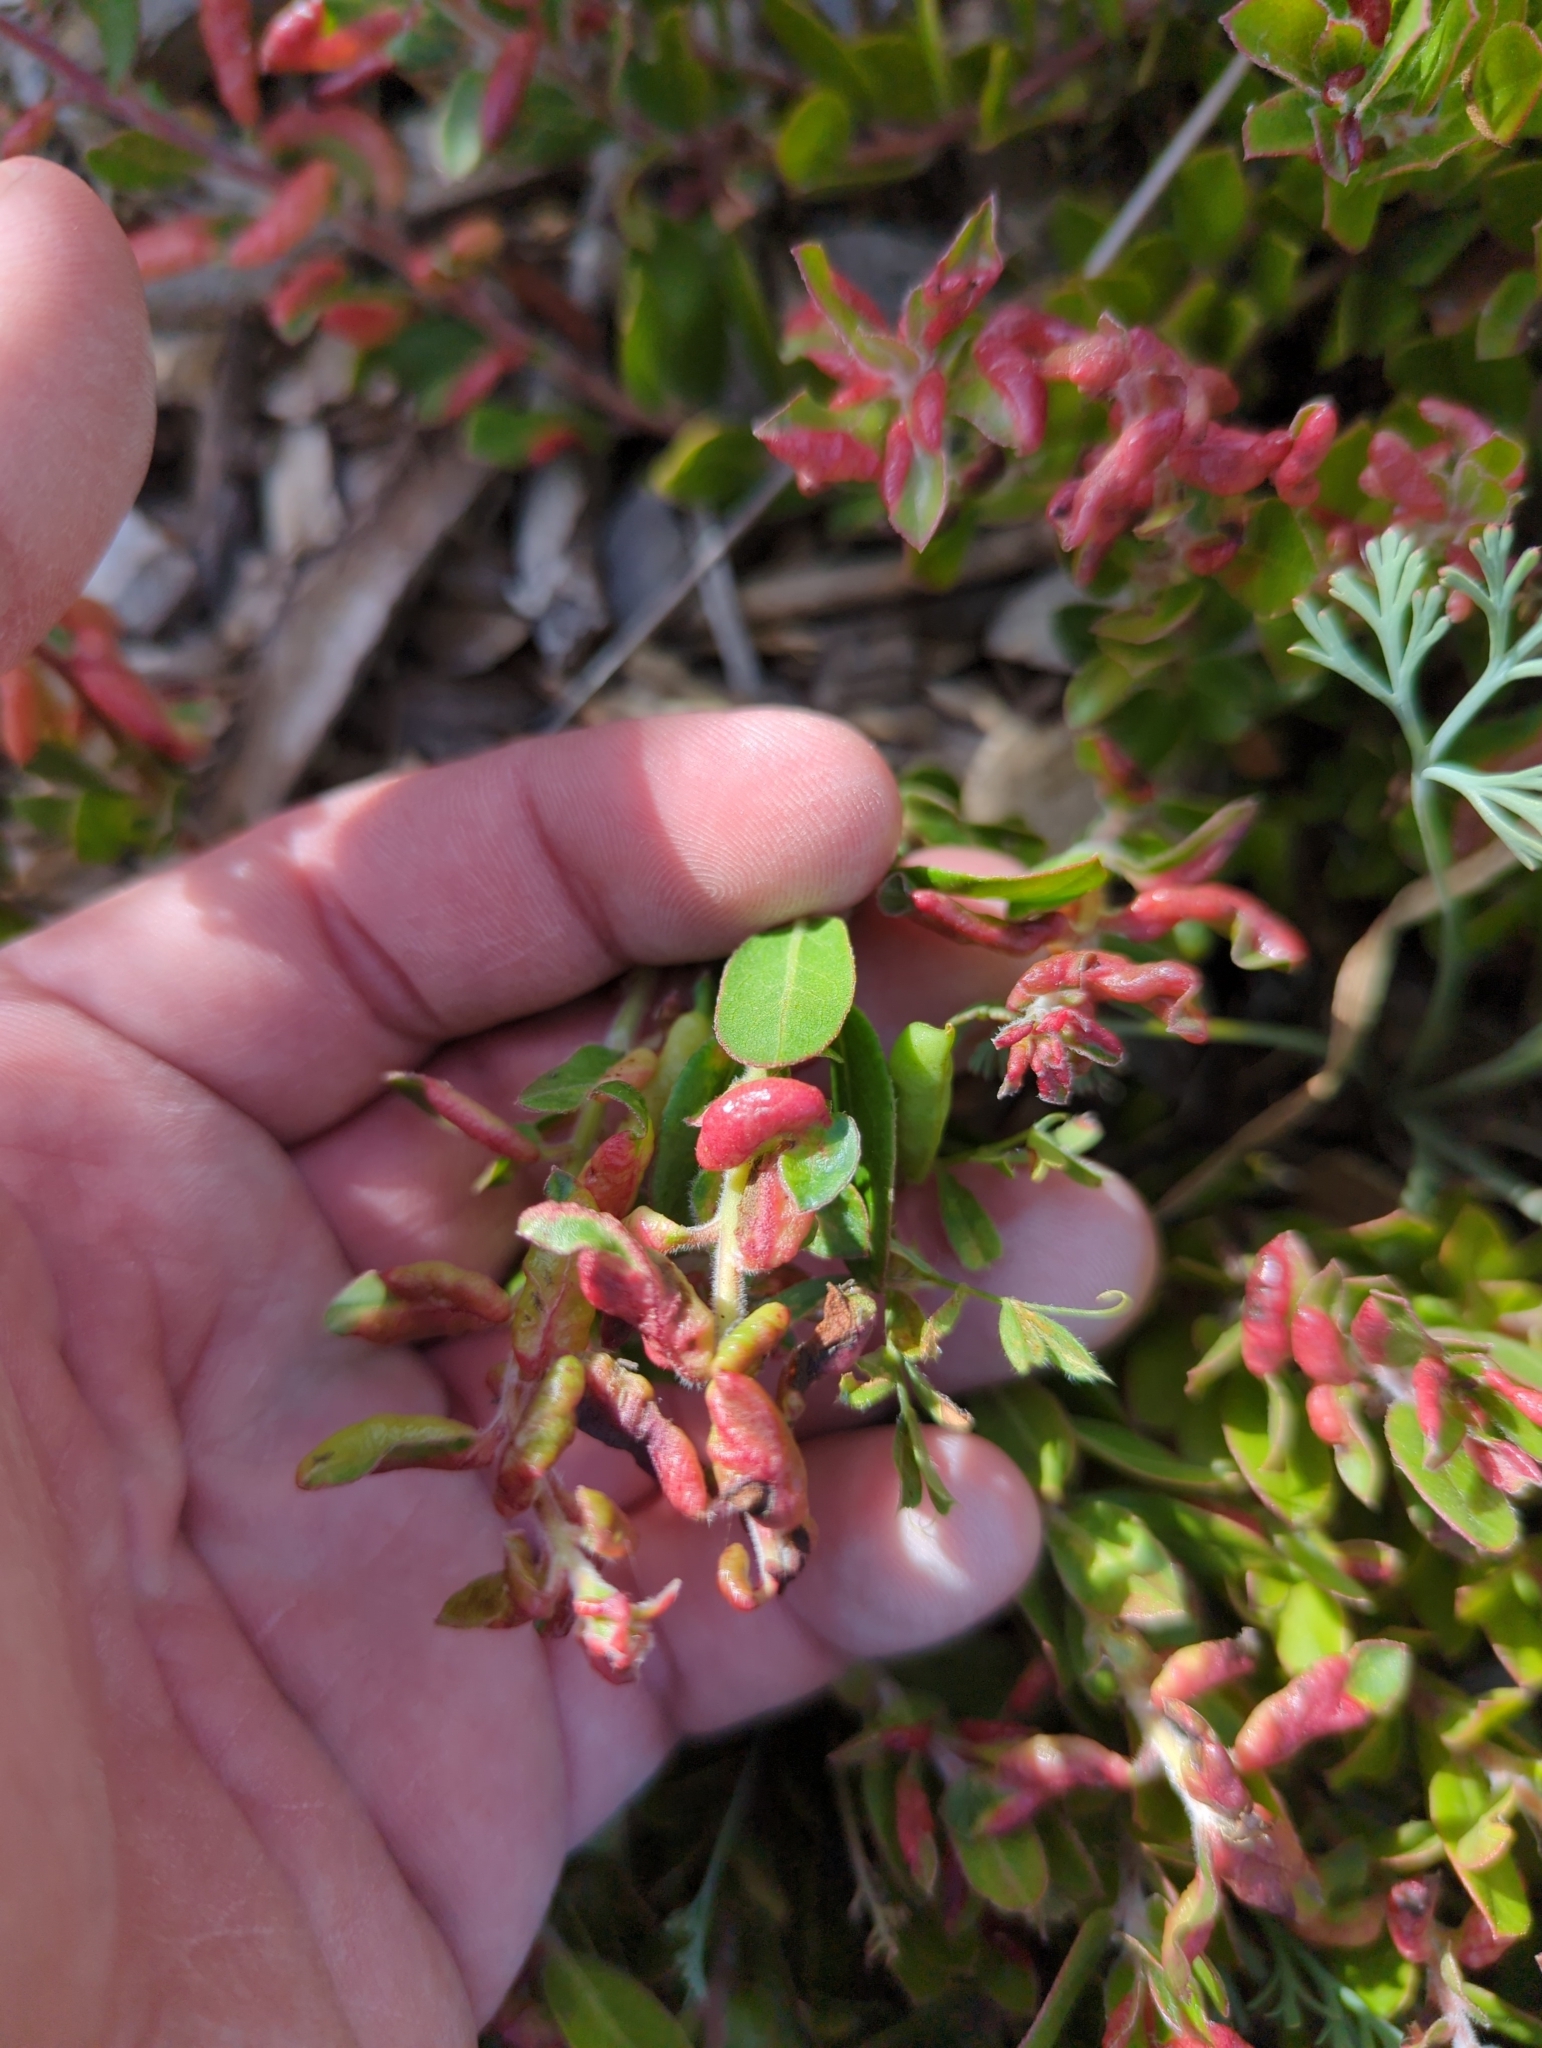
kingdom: Animalia
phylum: Arthropoda
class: Insecta
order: Hemiptera
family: Aphididae
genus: Tamalia
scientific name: Tamalia coweni
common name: Manzanita leafgall aphid
